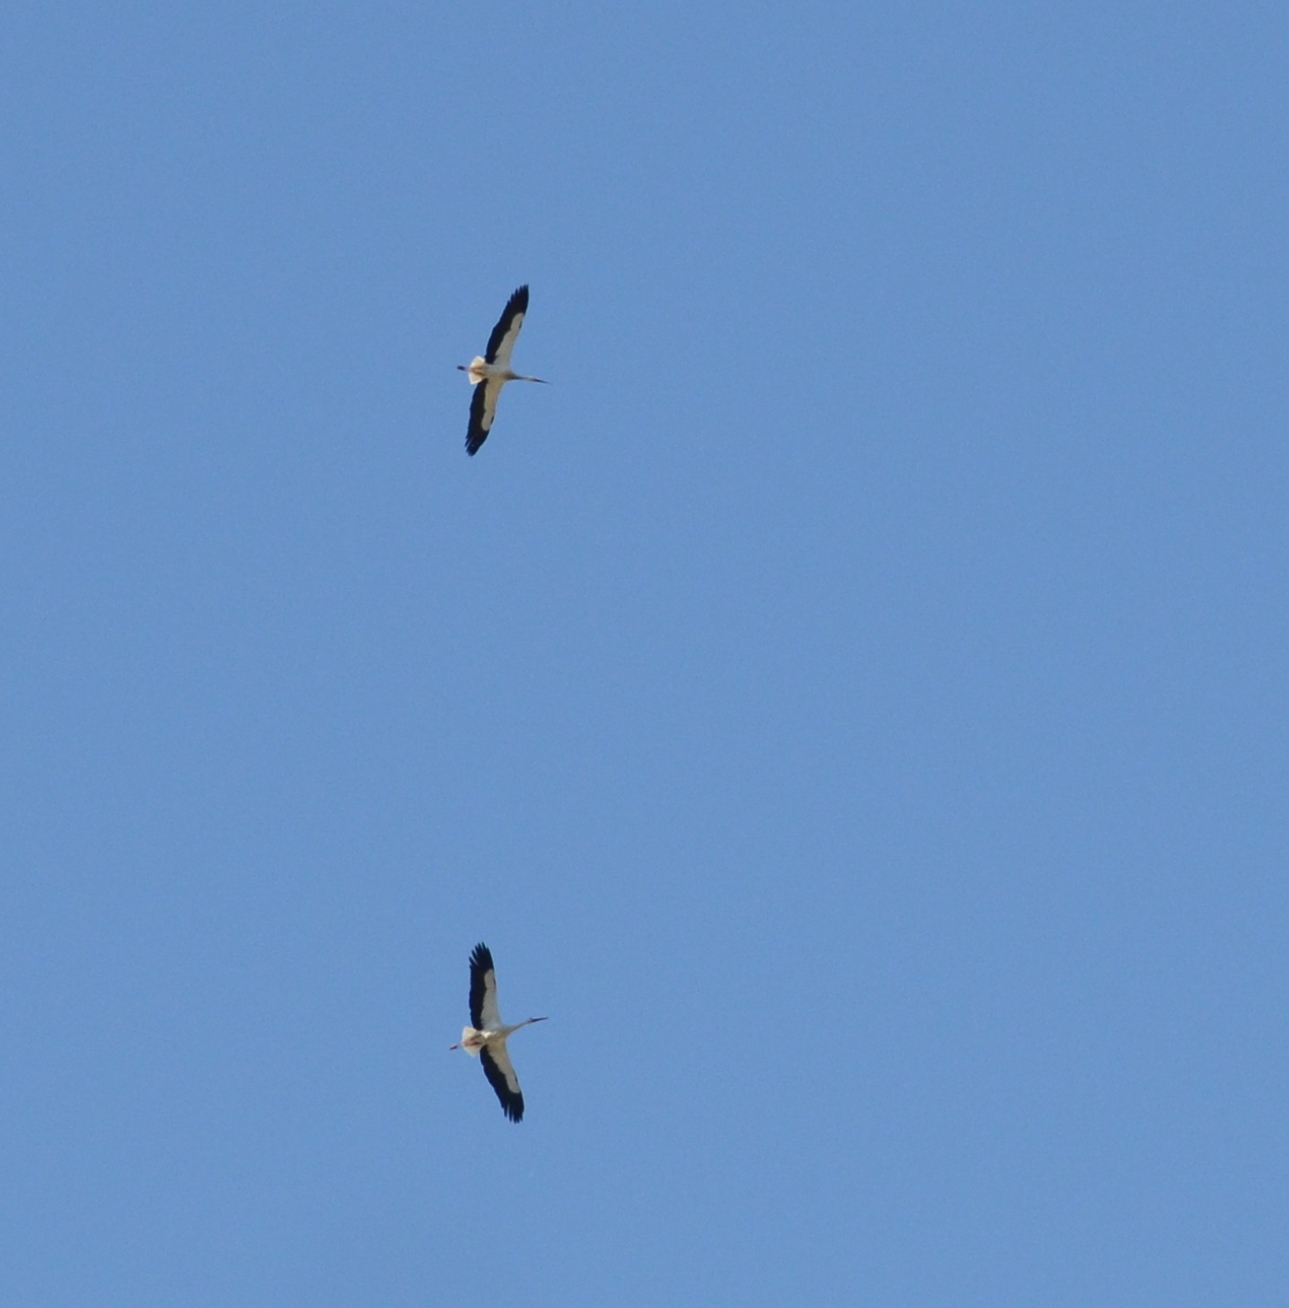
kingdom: Animalia
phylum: Chordata
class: Aves
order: Ciconiiformes
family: Ciconiidae
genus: Ciconia
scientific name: Ciconia ciconia
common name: White stork
